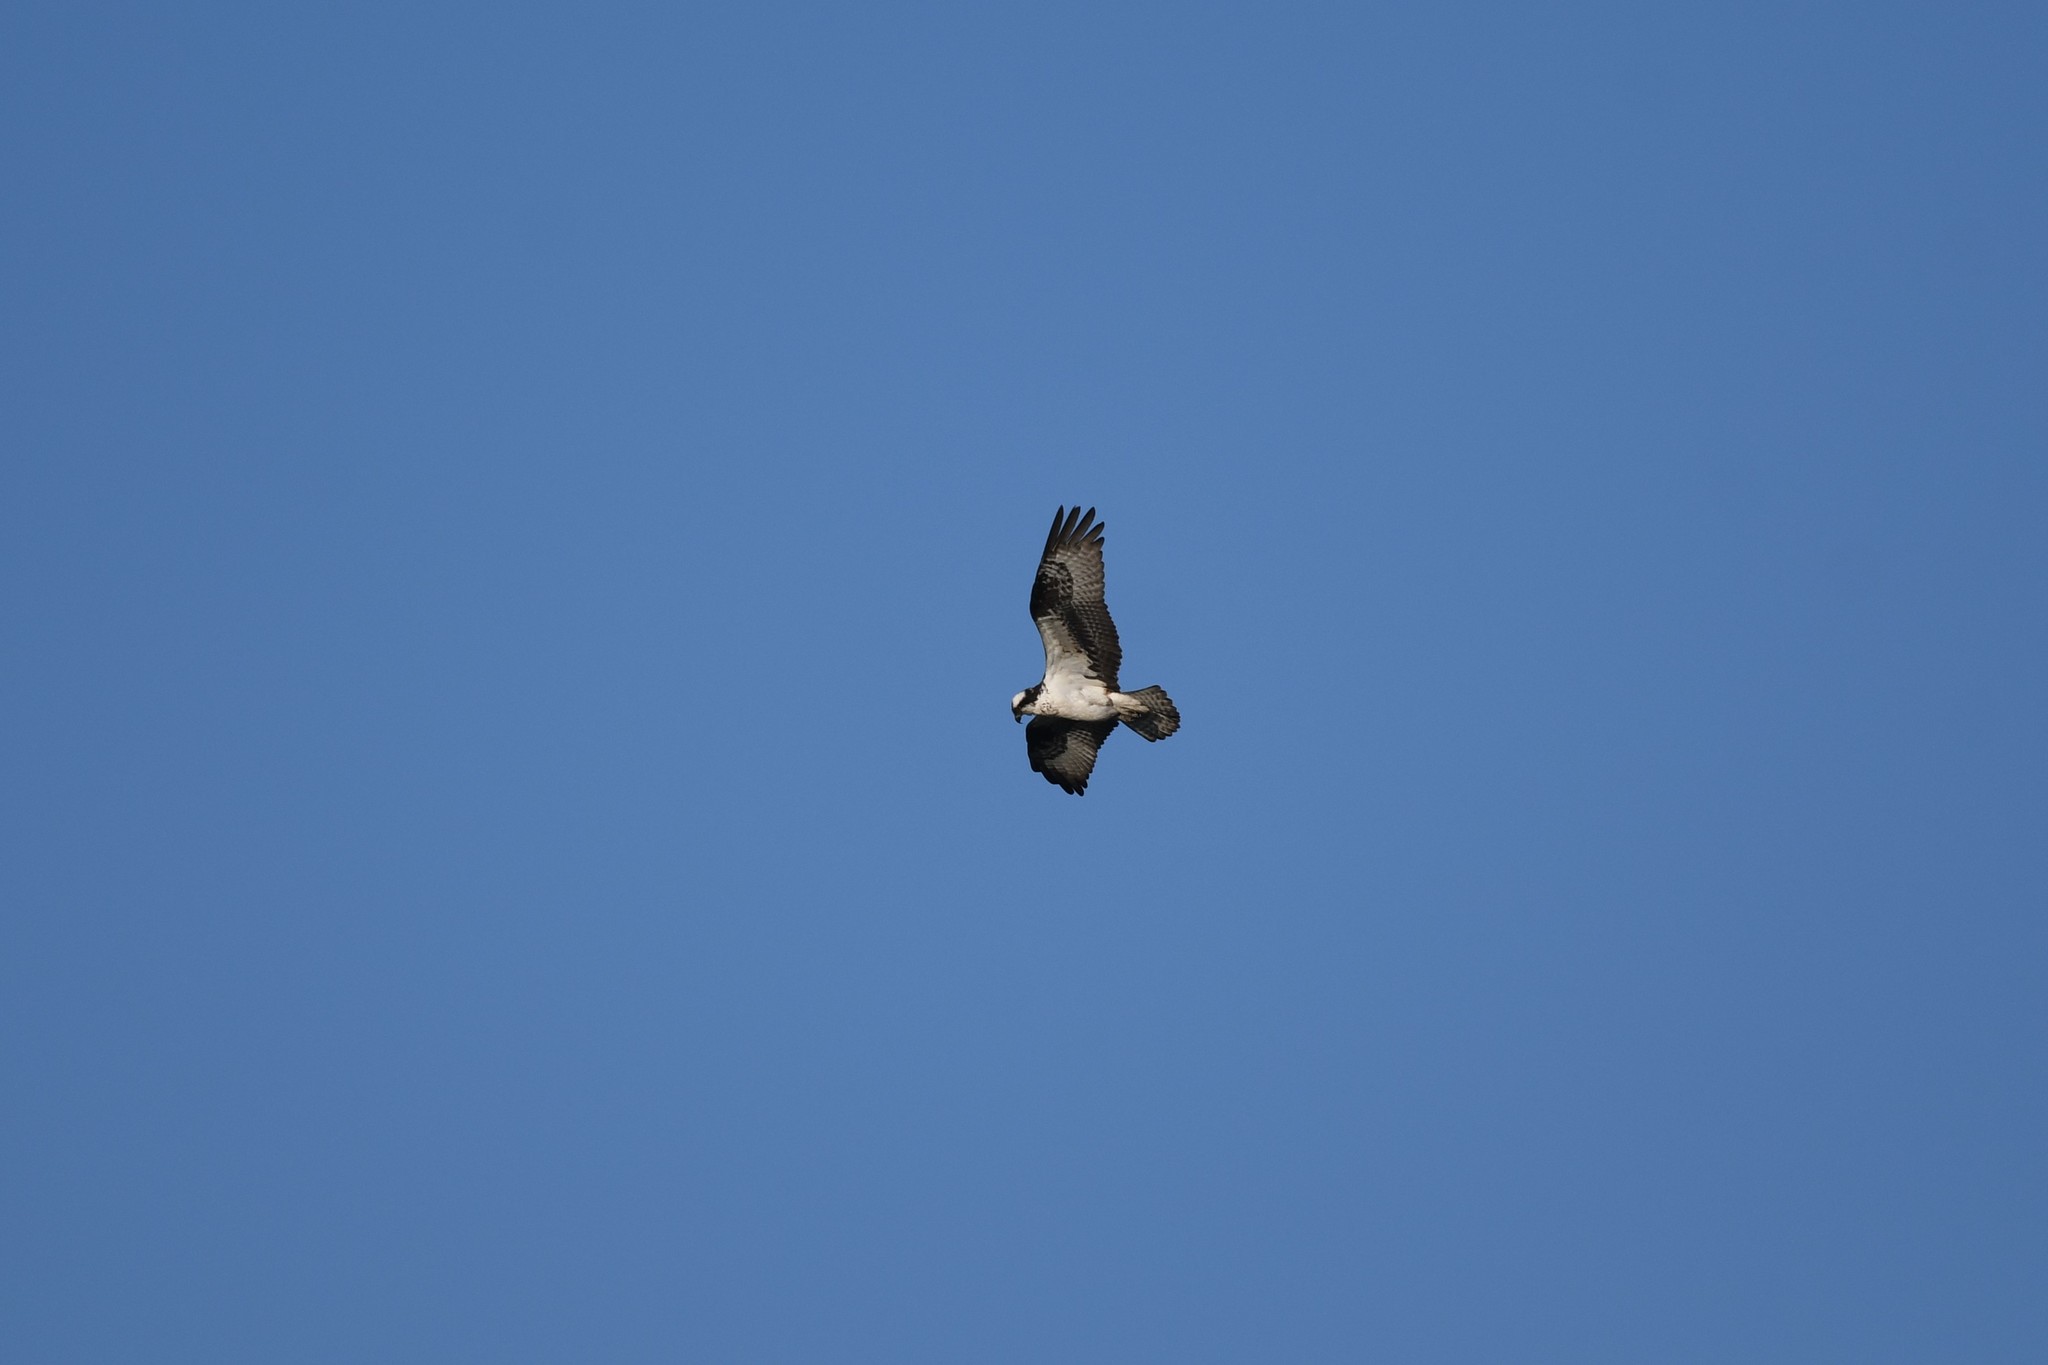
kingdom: Animalia
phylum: Chordata
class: Aves
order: Accipitriformes
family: Pandionidae
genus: Pandion
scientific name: Pandion haliaetus
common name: Osprey
